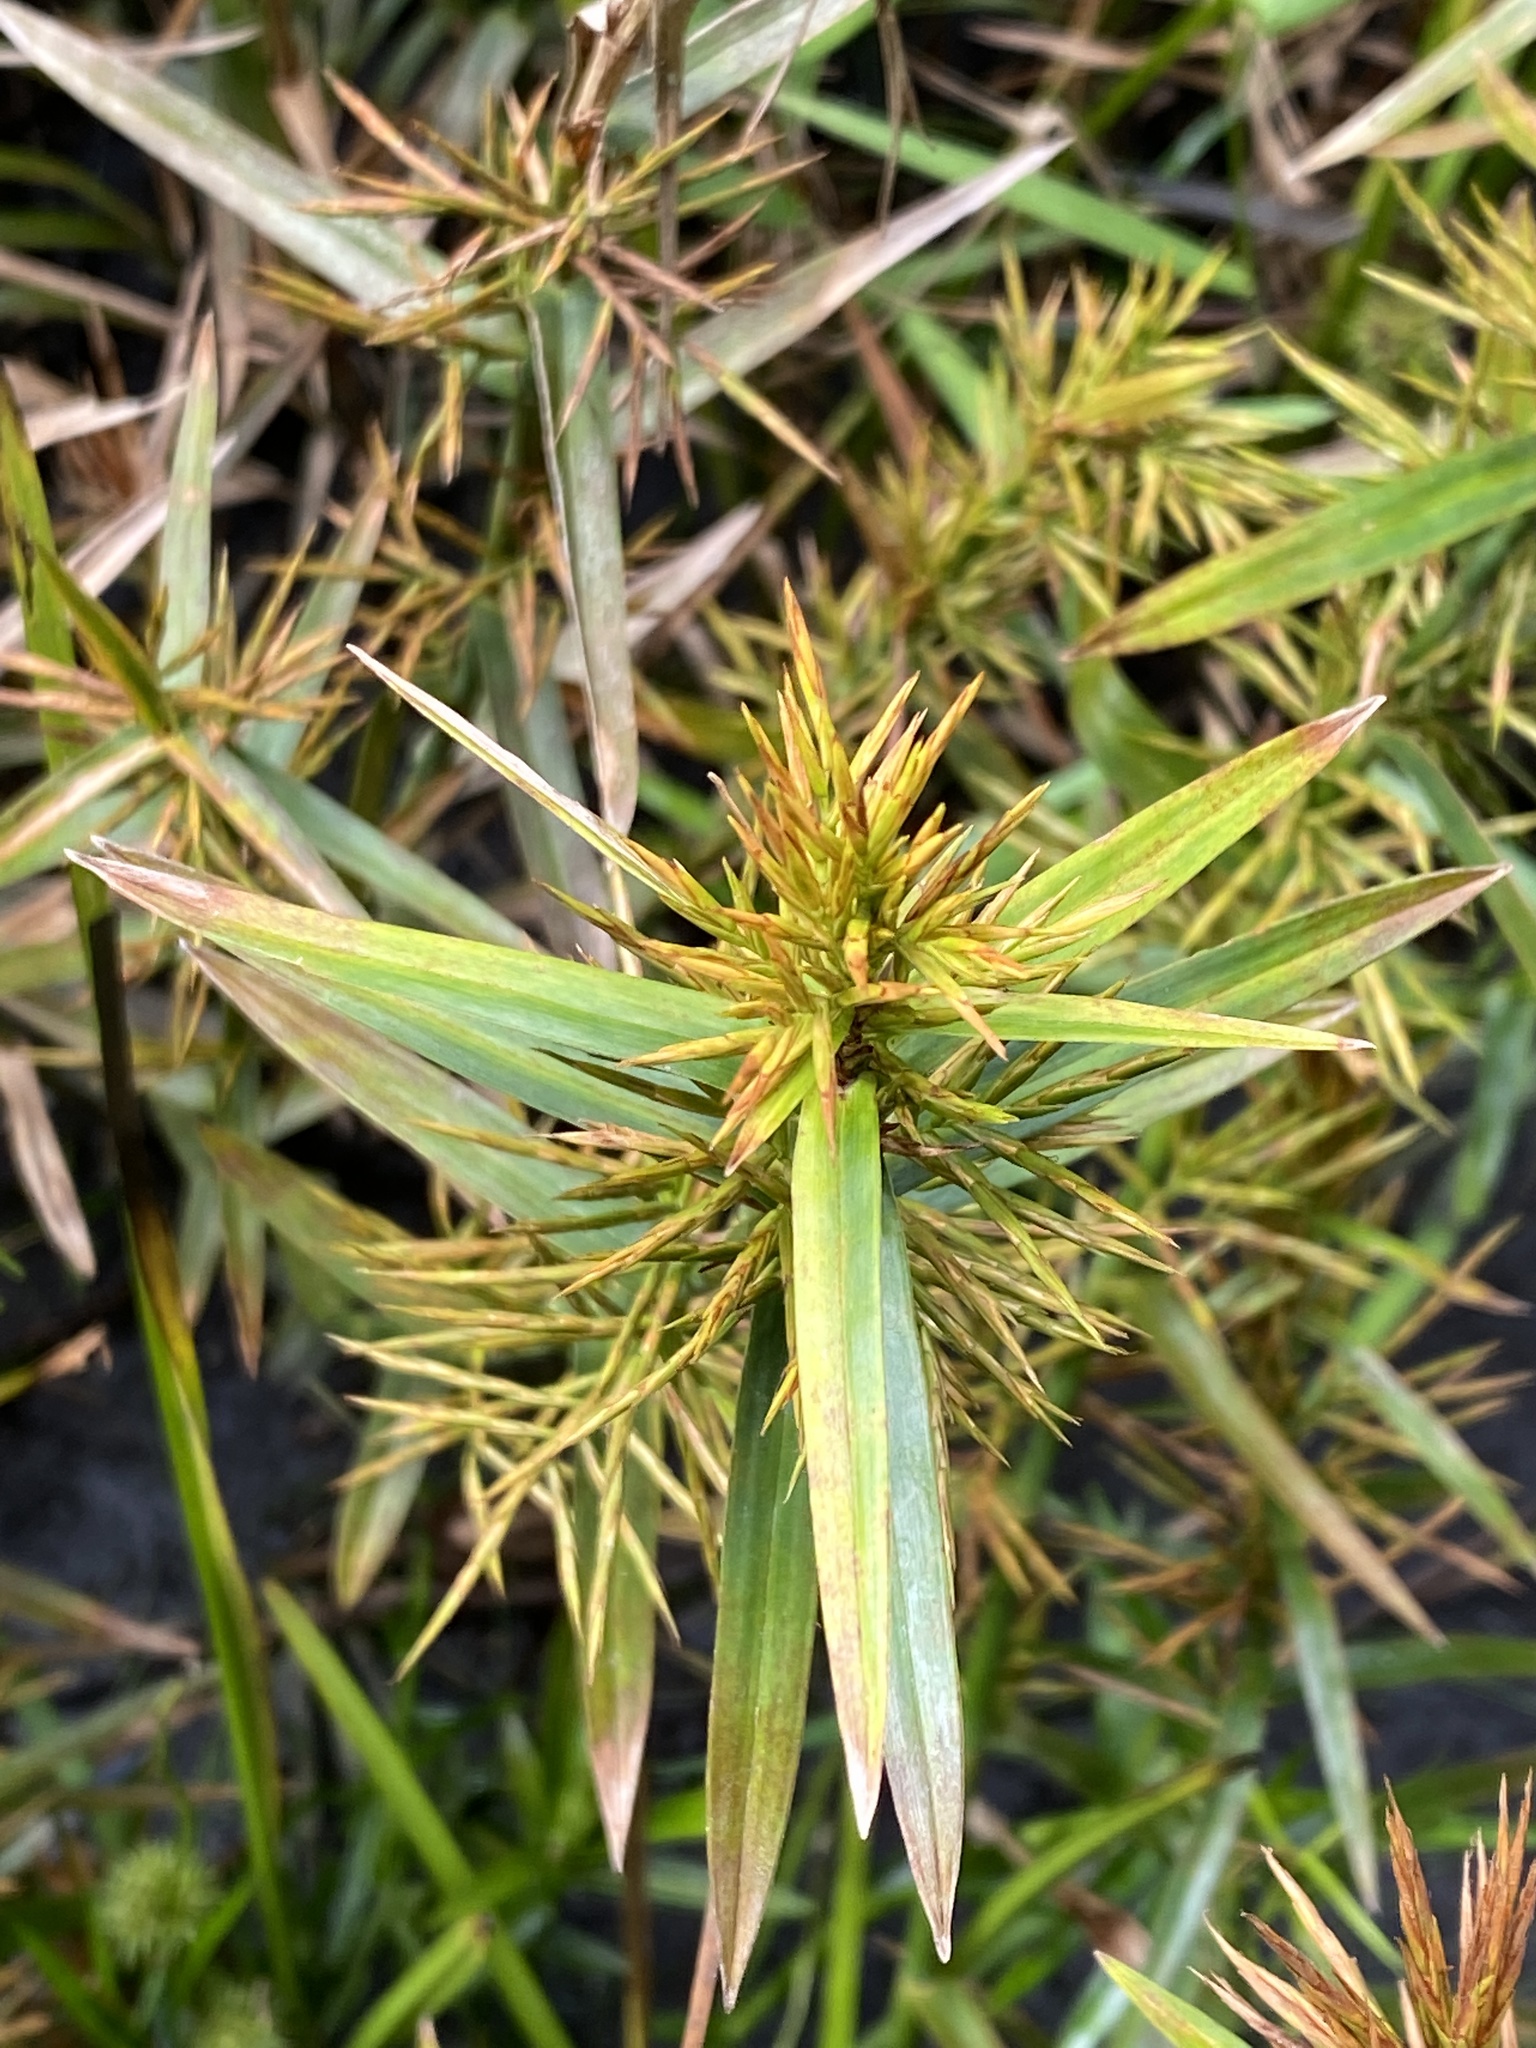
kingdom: Plantae
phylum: Tracheophyta
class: Liliopsida
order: Poales
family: Cyperaceae
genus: Dulichium
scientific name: Dulichium arundinaceum
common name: Three-way sedge
